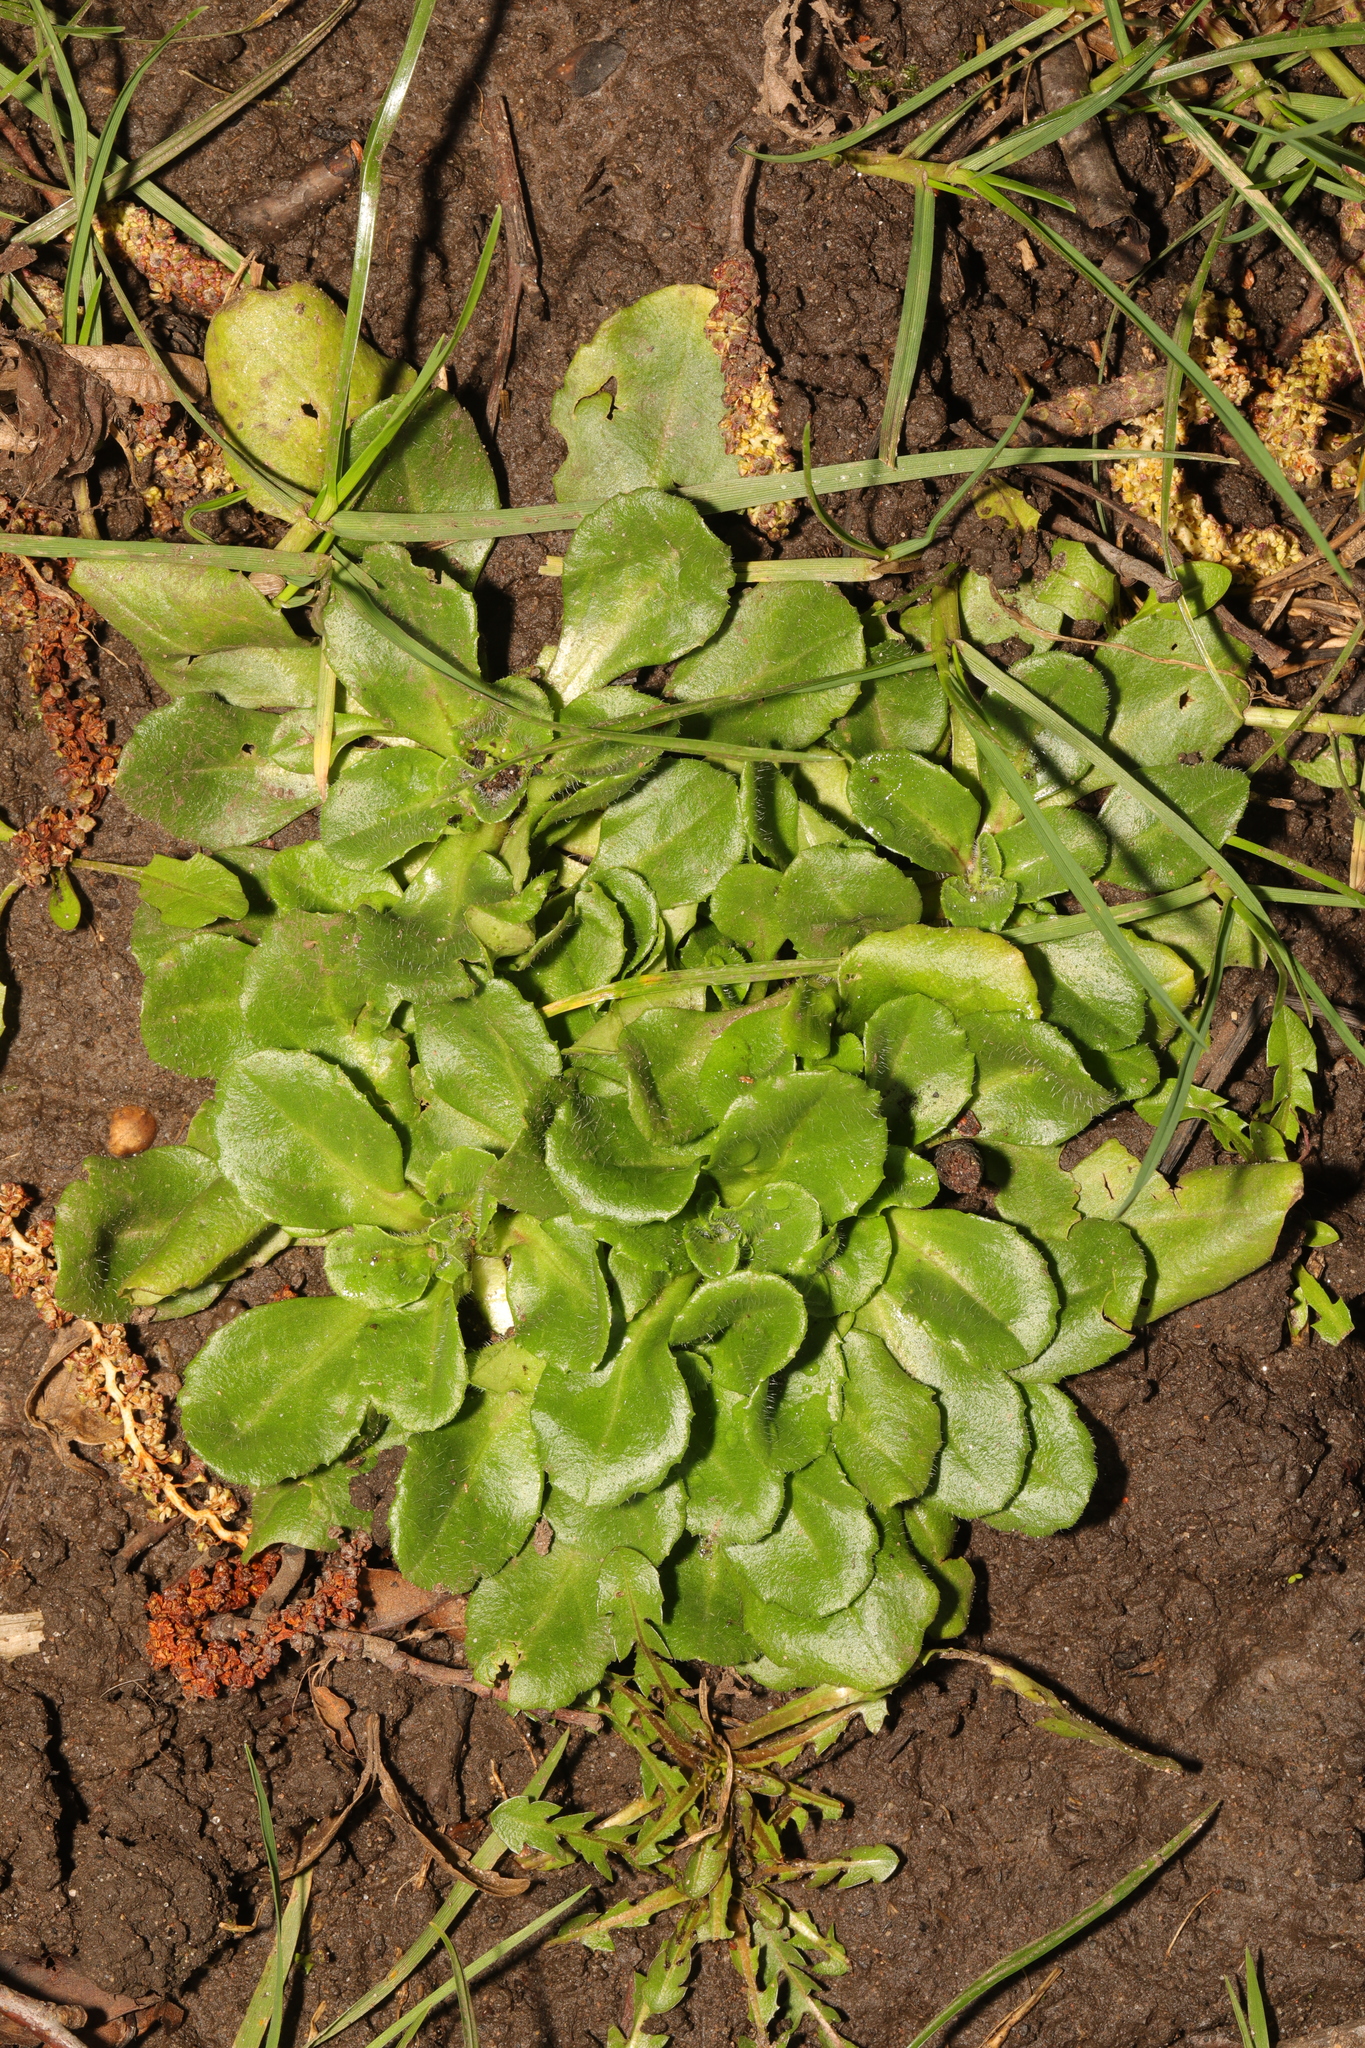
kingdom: Plantae
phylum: Tracheophyta
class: Magnoliopsida
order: Asterales
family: Asteraceae
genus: Bellis
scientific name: Bellis perennis
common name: Lawndaisy
